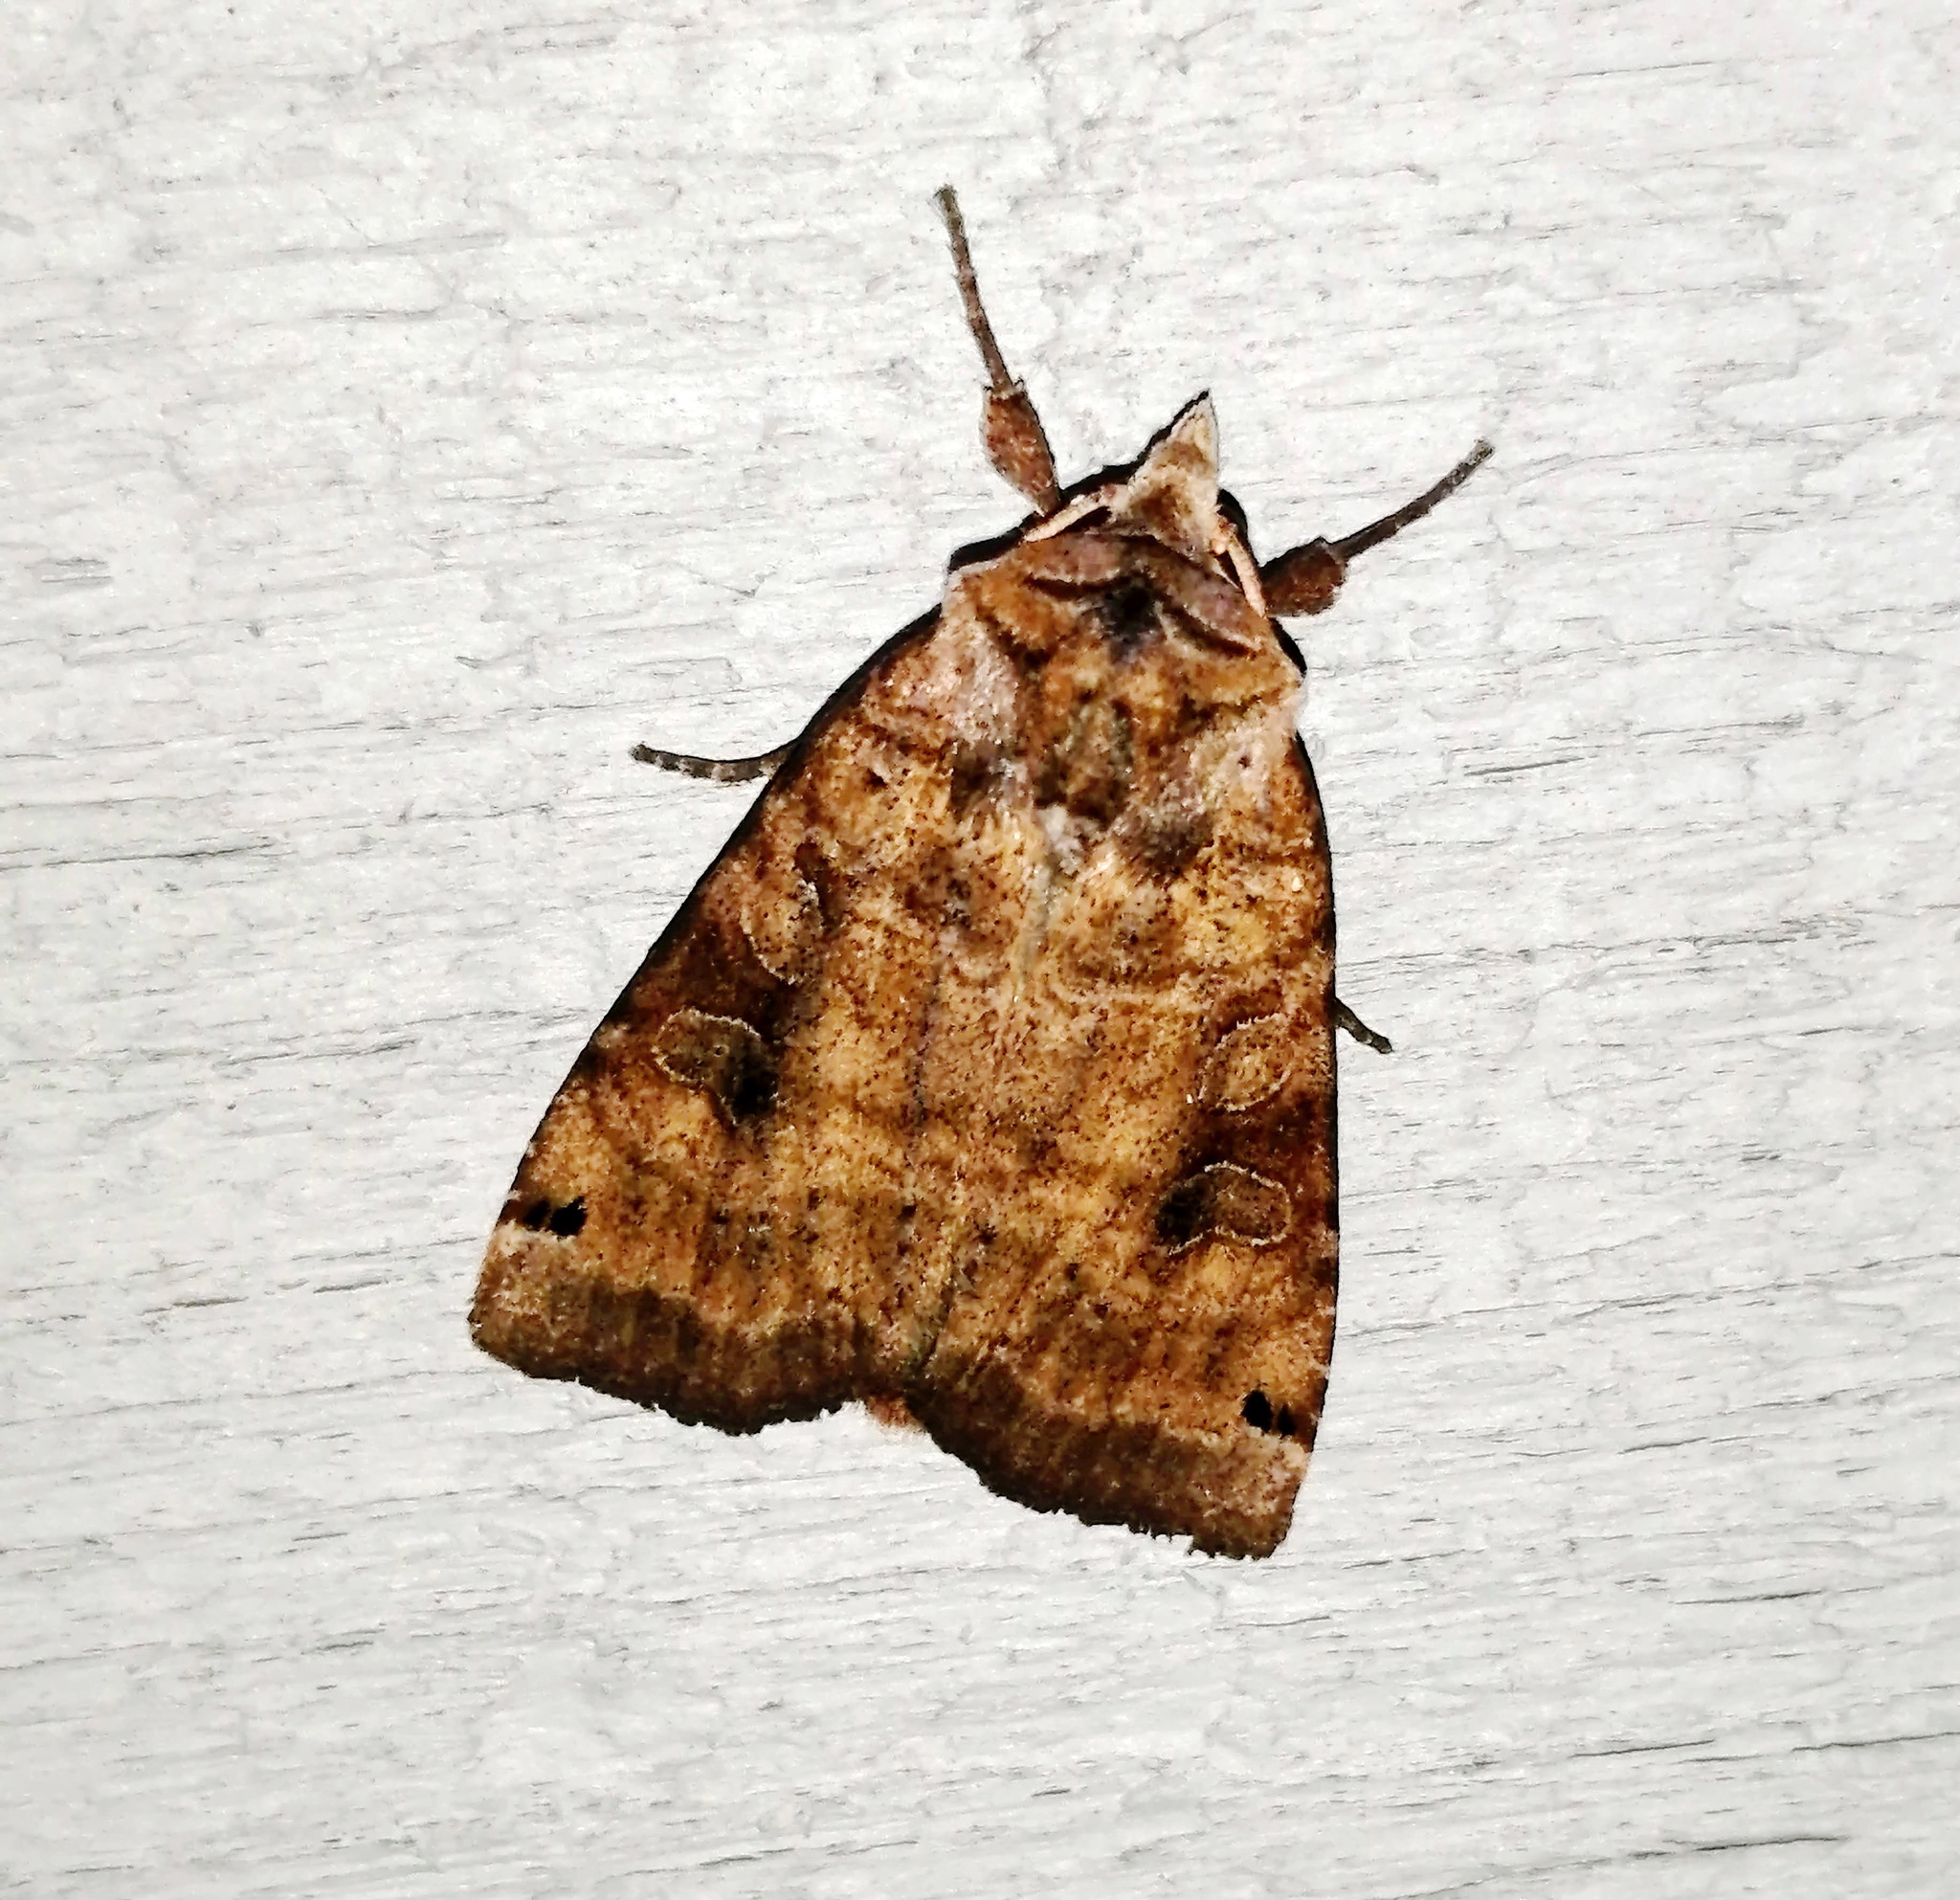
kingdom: Animalia
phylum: Arthropoda
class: Insecta
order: Lepidoptera
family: Noctuidae
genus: Xestia
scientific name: Xestia smithii
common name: Smith's dart
